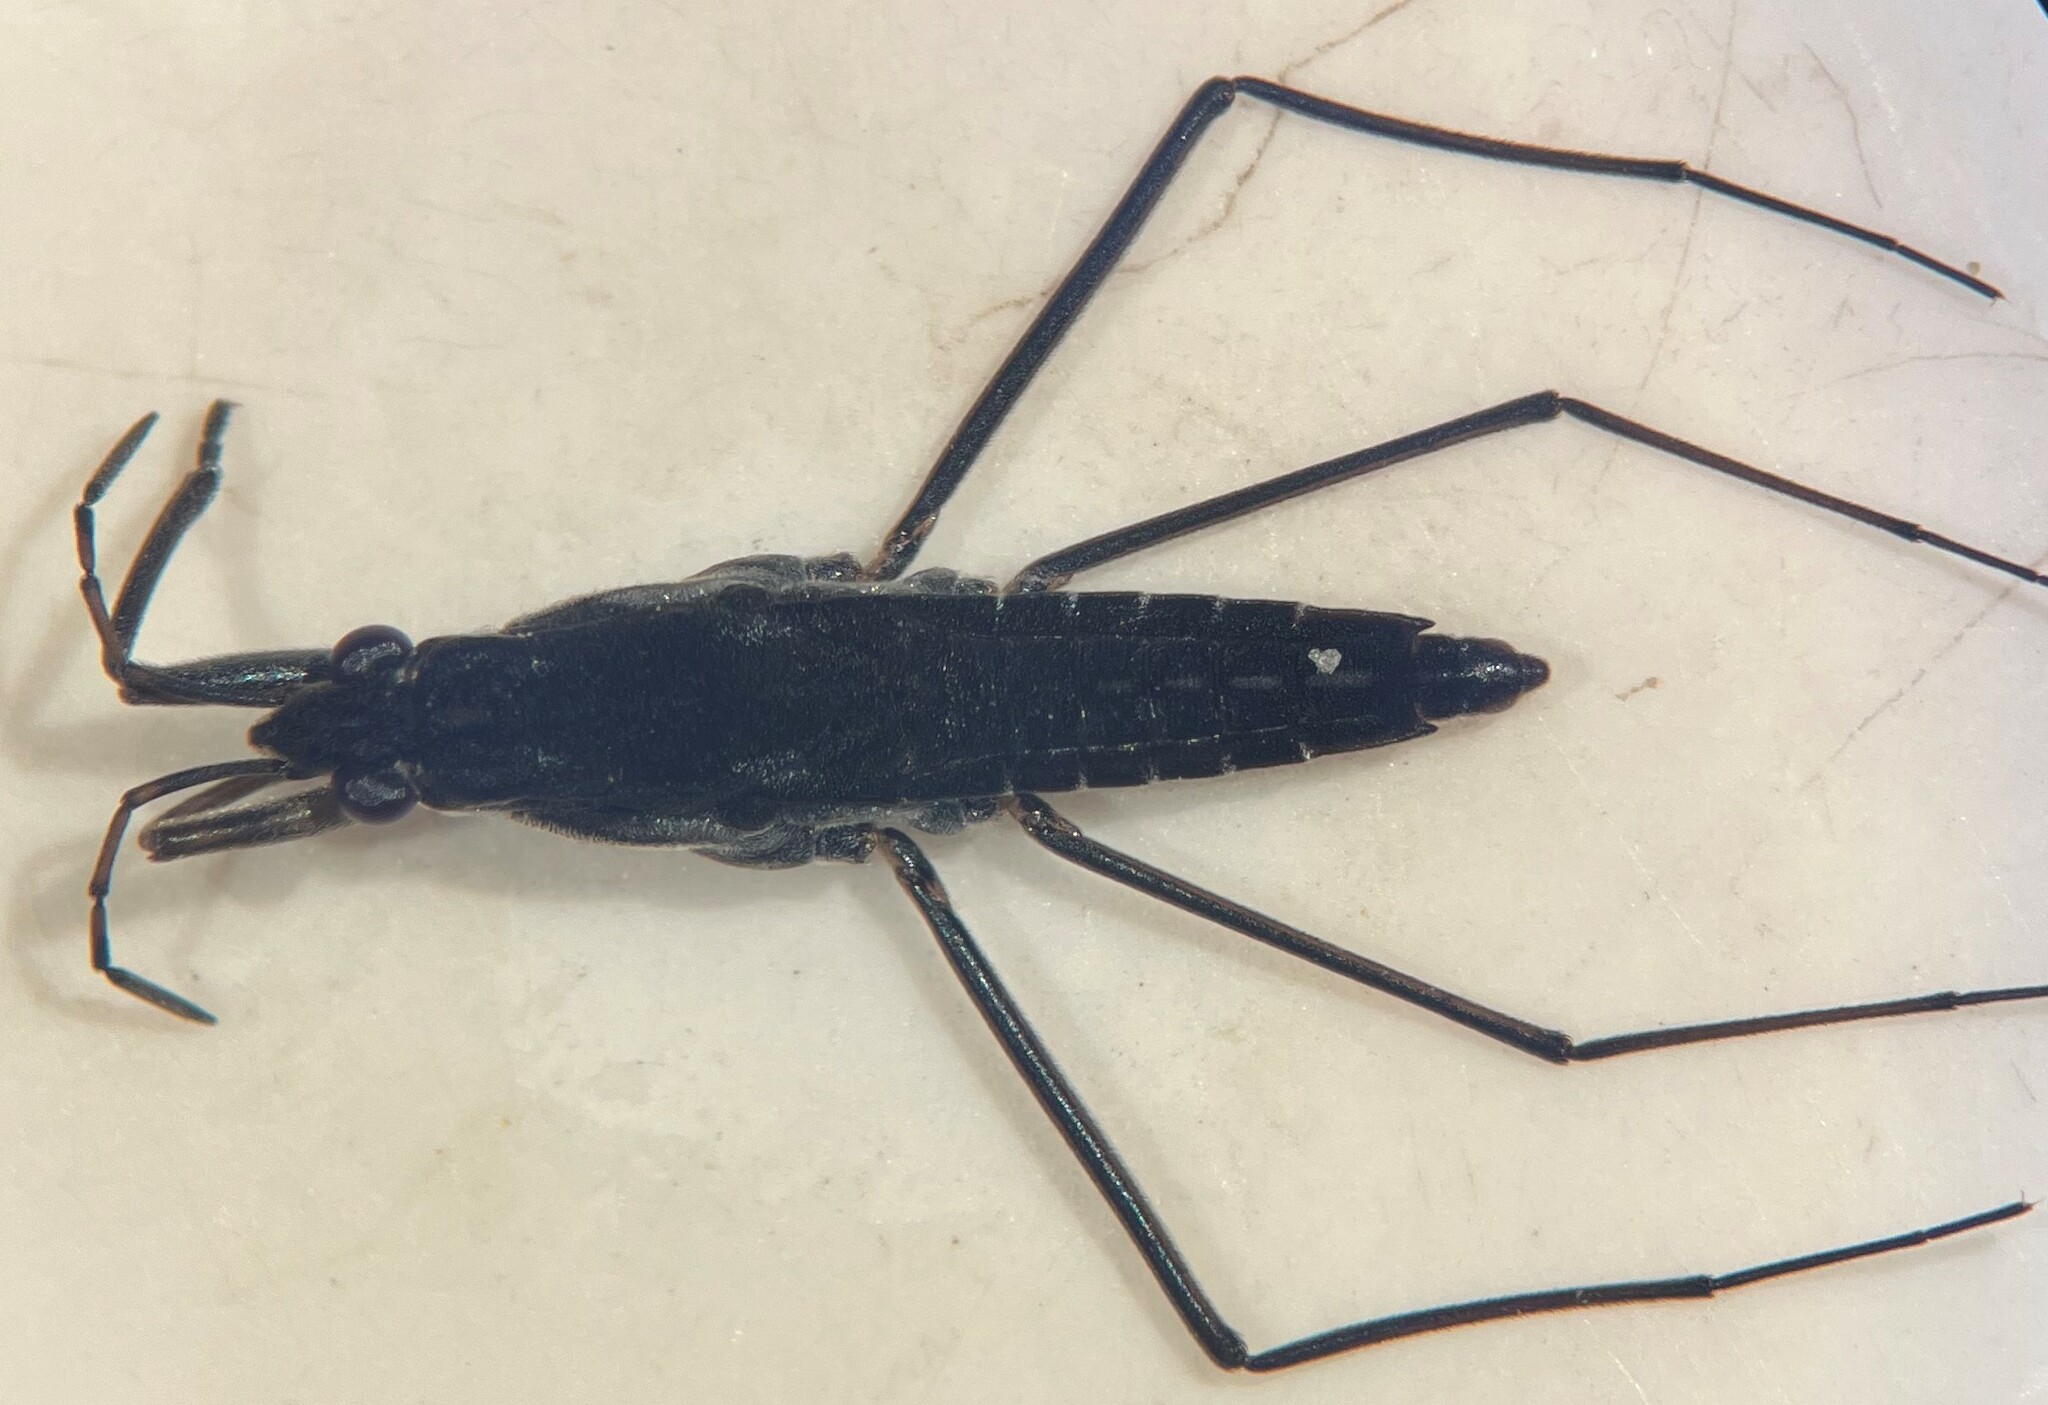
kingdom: Animalia
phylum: Arthropoda
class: Insecta
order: Hemiptera
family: Gerridae
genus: Gerris
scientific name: Gerris gillettei
